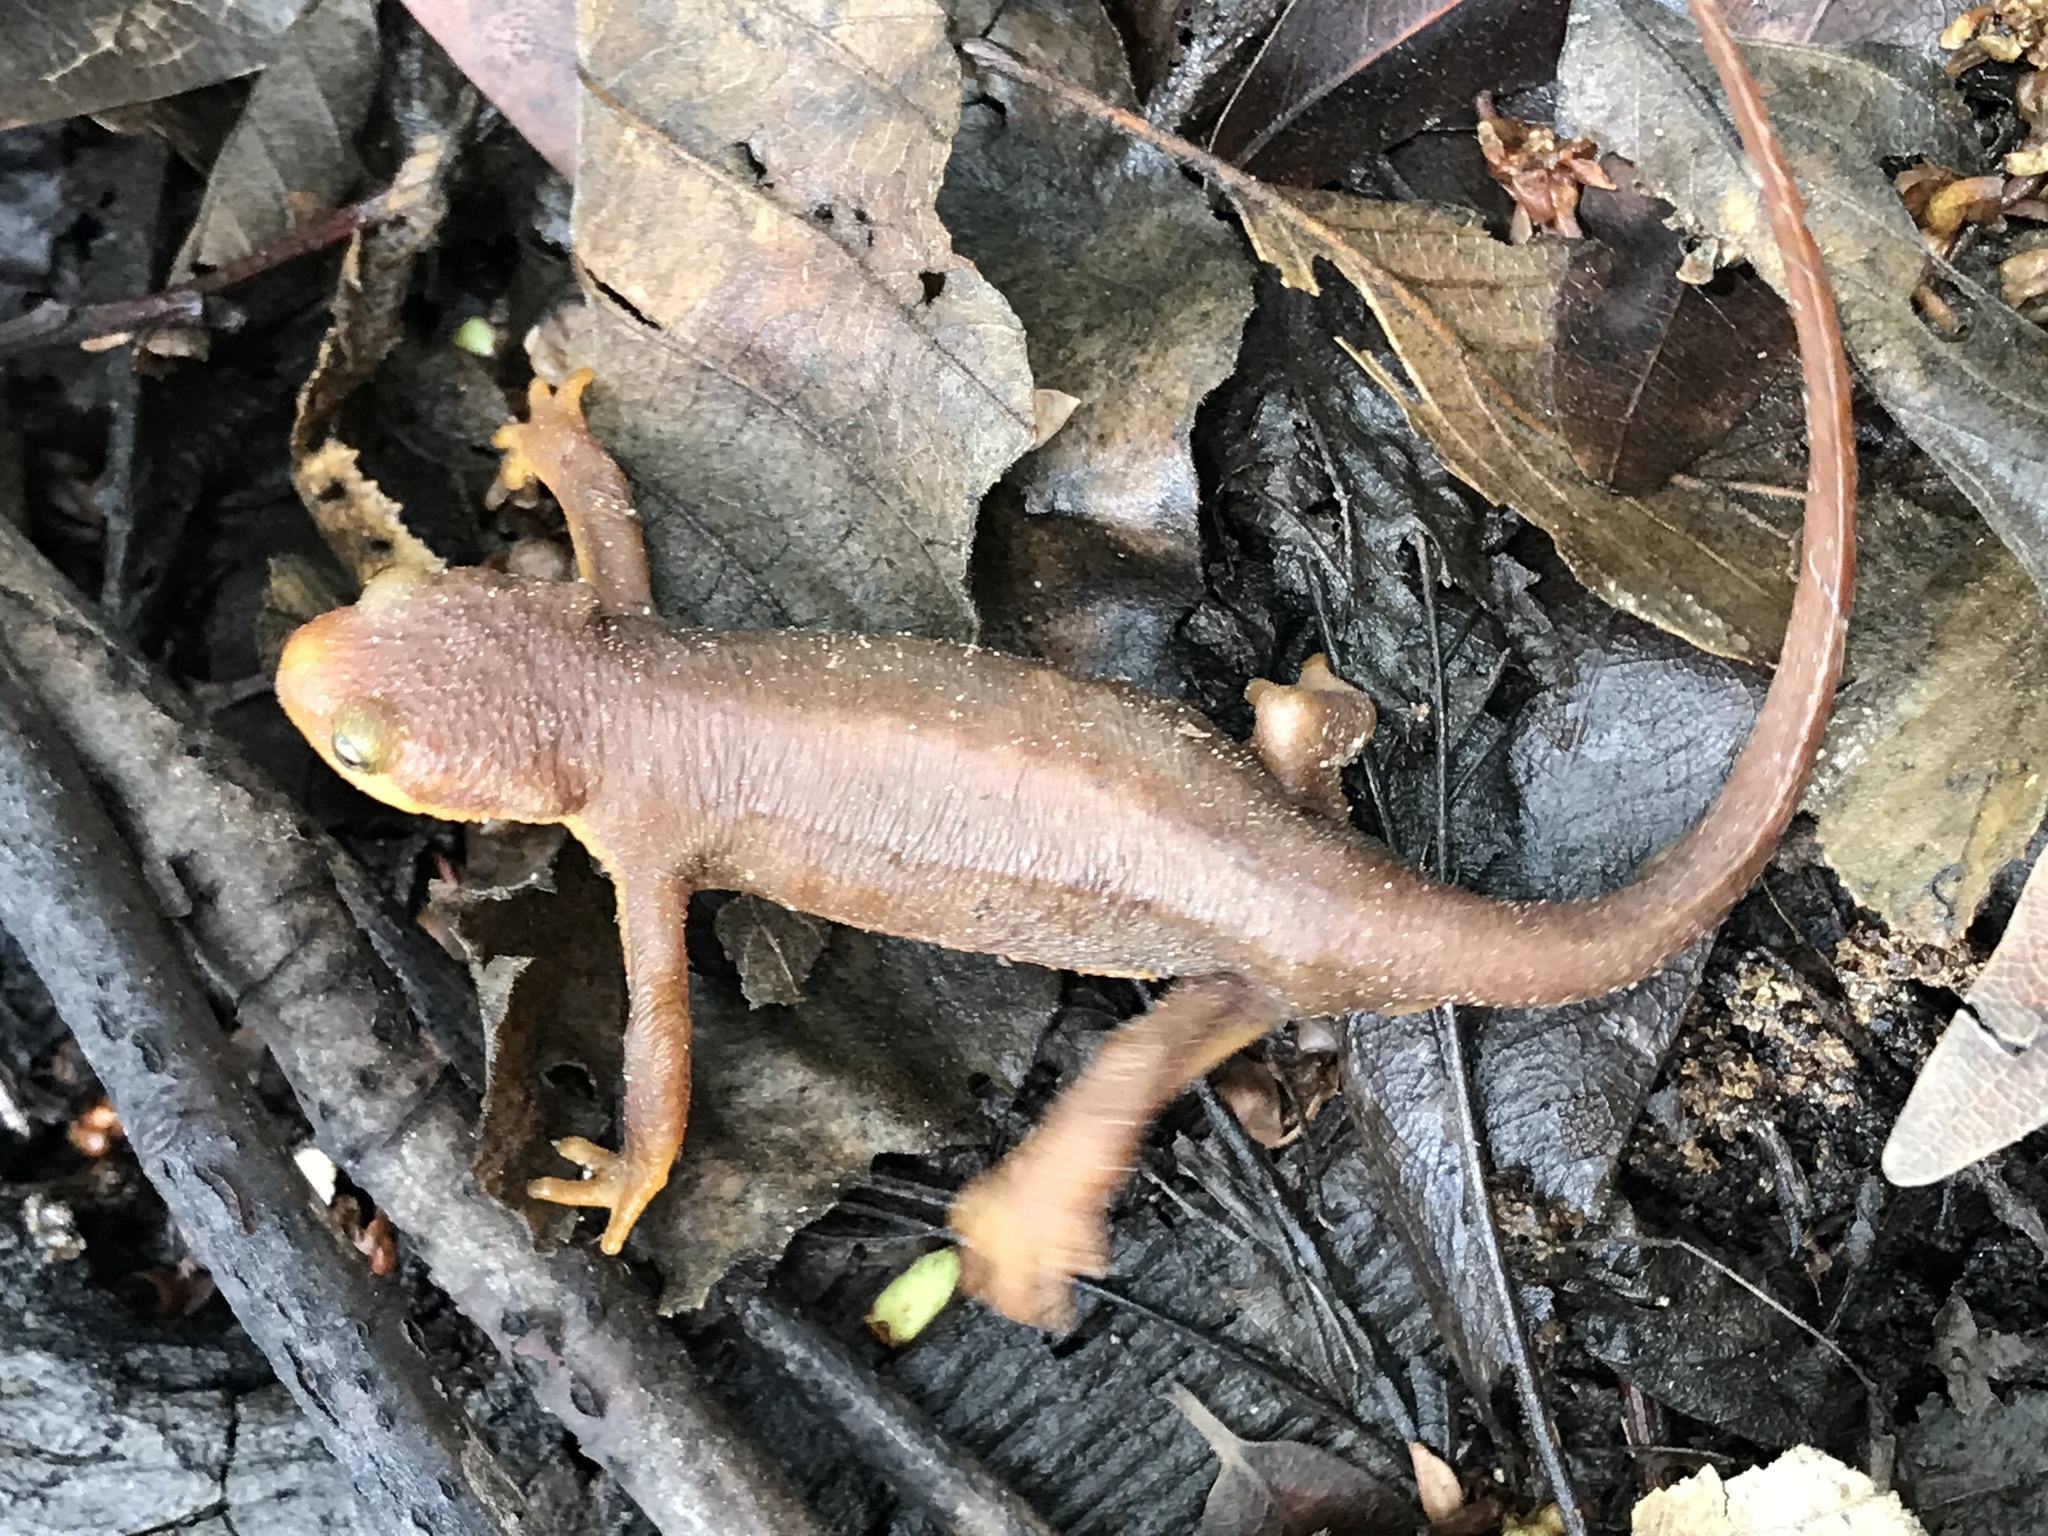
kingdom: Animalia
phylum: Chordata
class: Amphibia
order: Caudata
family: Salamandridae
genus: Taricha
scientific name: Taricha torosa
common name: California newt
